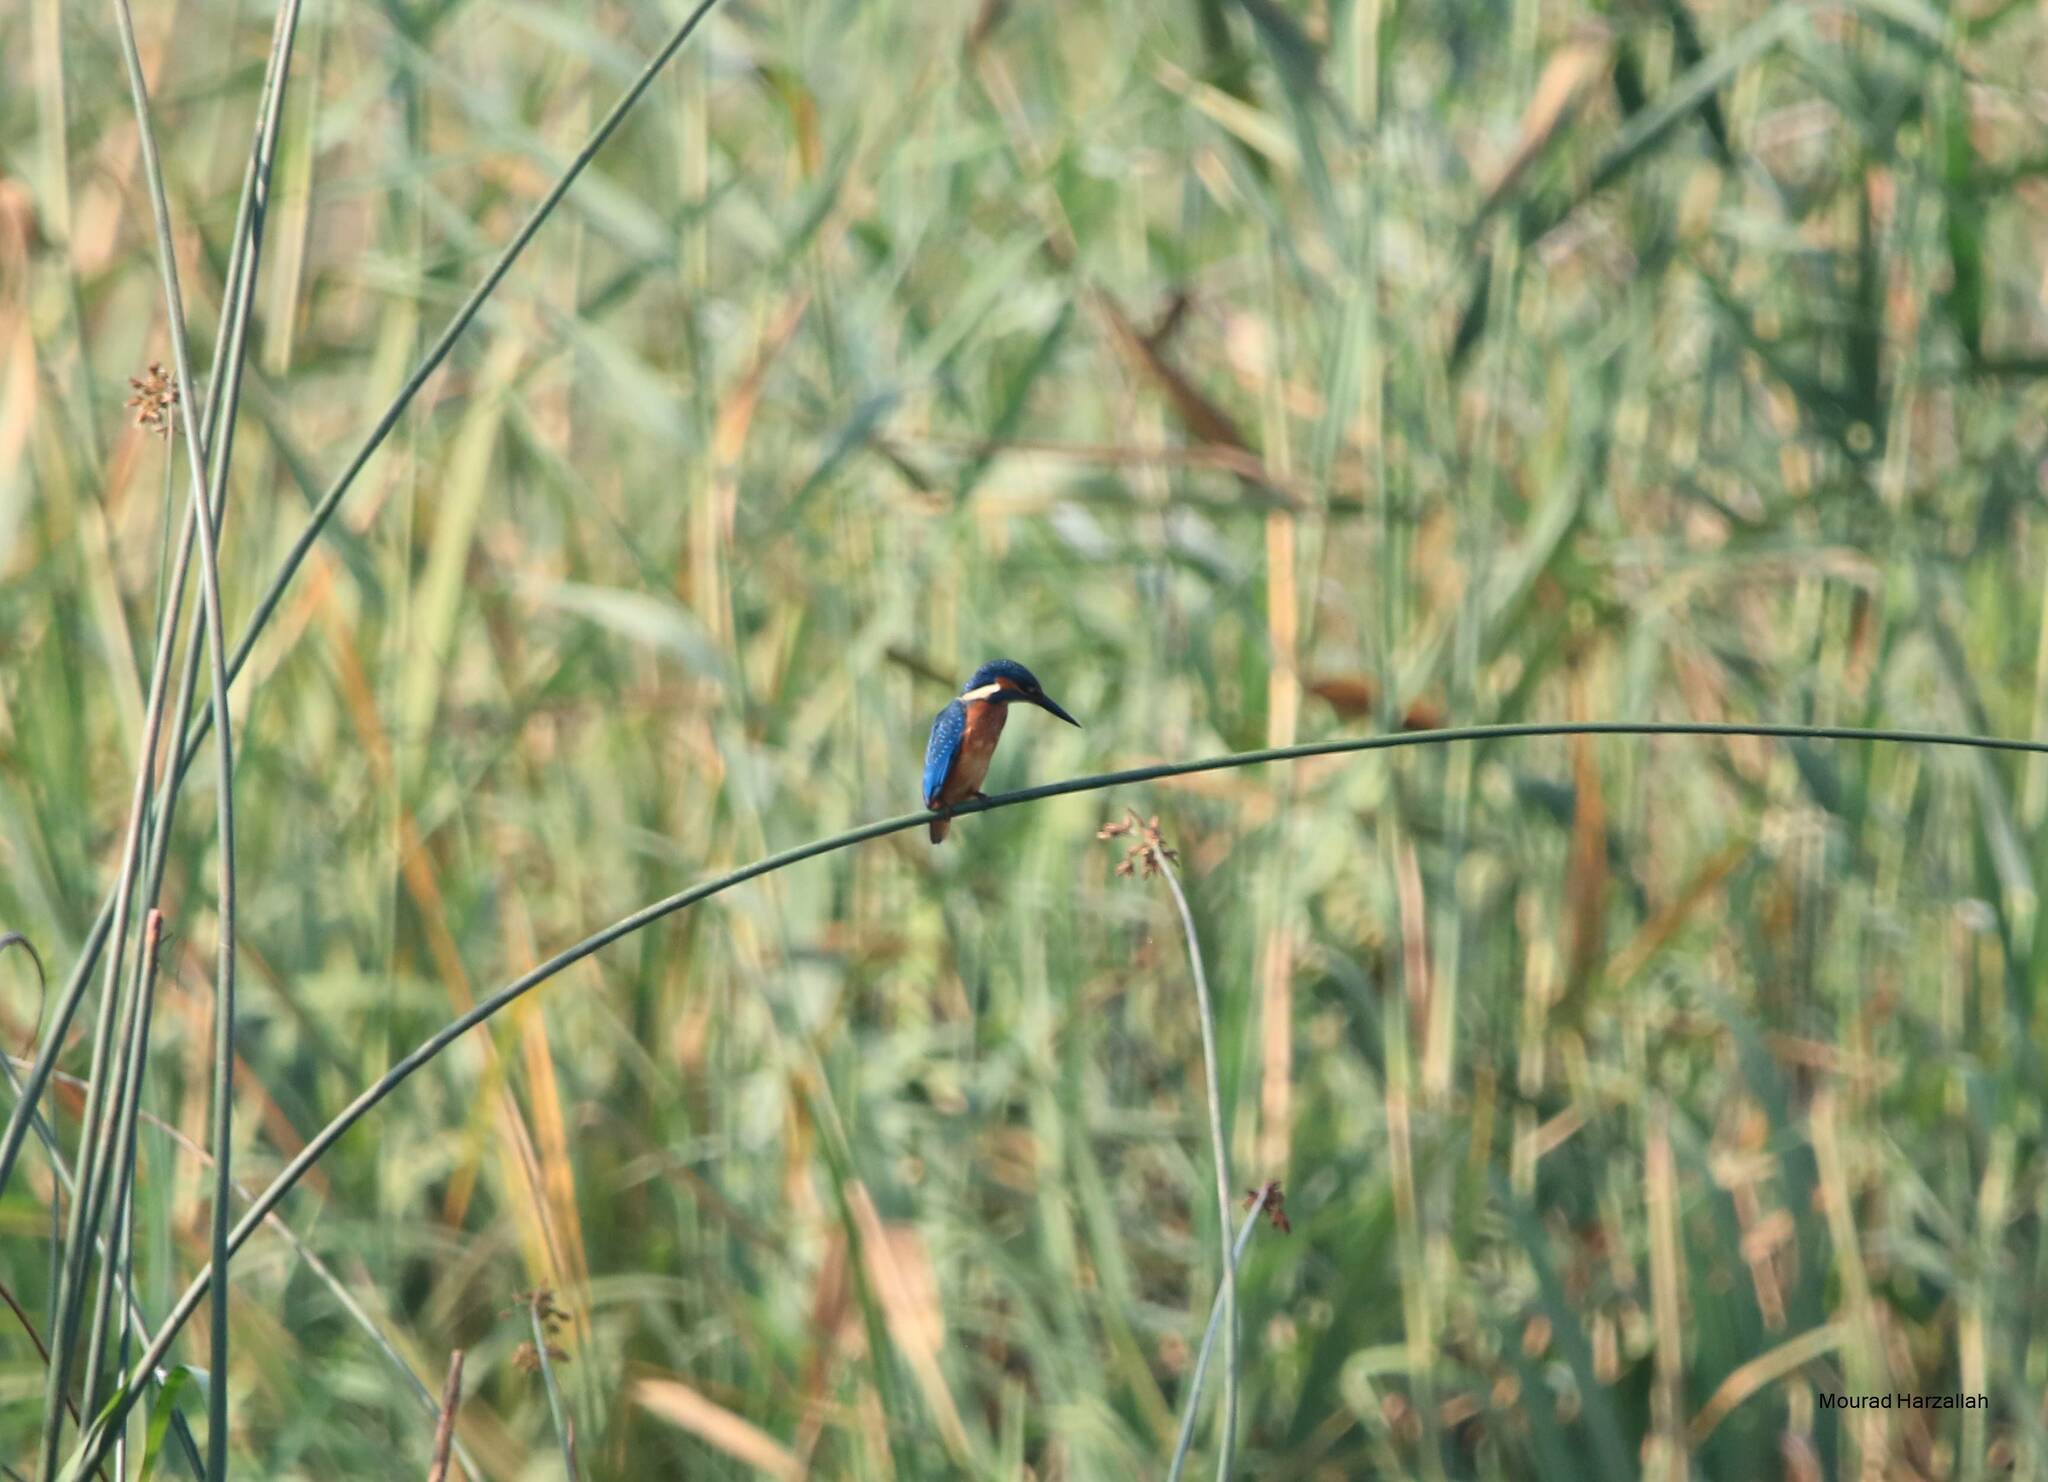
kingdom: Animalia
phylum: Chordata
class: Aves
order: Coraciiformes
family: Alcedinidae
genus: Alcedo
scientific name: Alcedo atthis
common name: Common kingfisher
